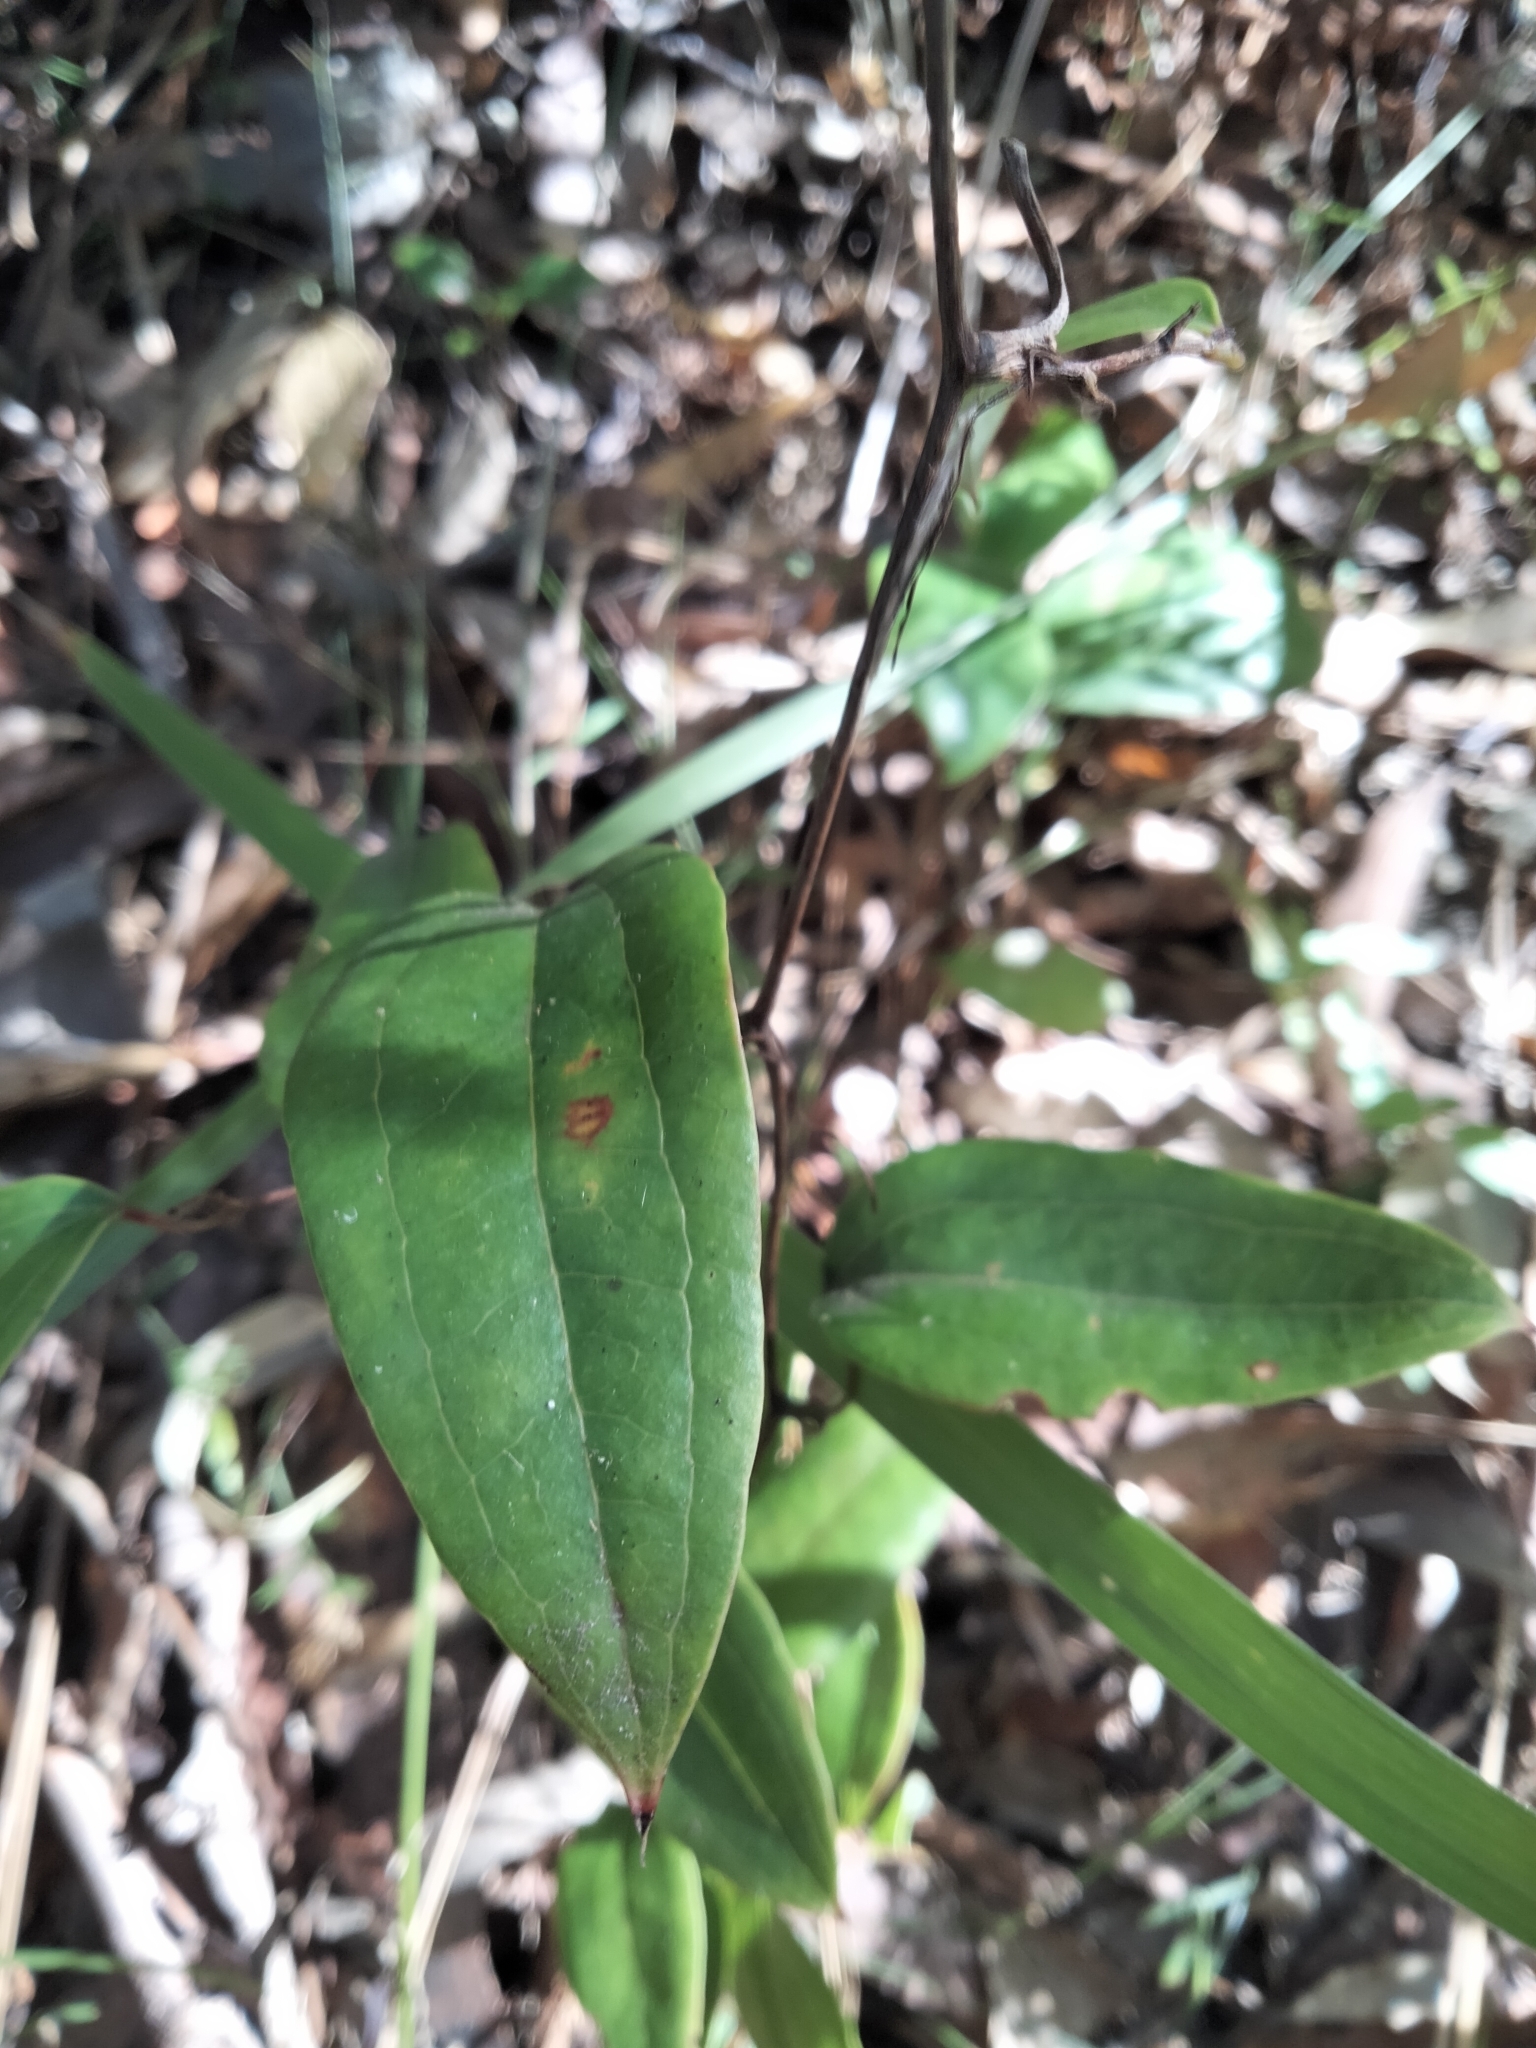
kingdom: Plantae
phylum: Tracheophyta
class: Liliopsida
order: Liliales
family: Smilacaceae
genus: Smilax
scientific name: Smilax glyciphylla
